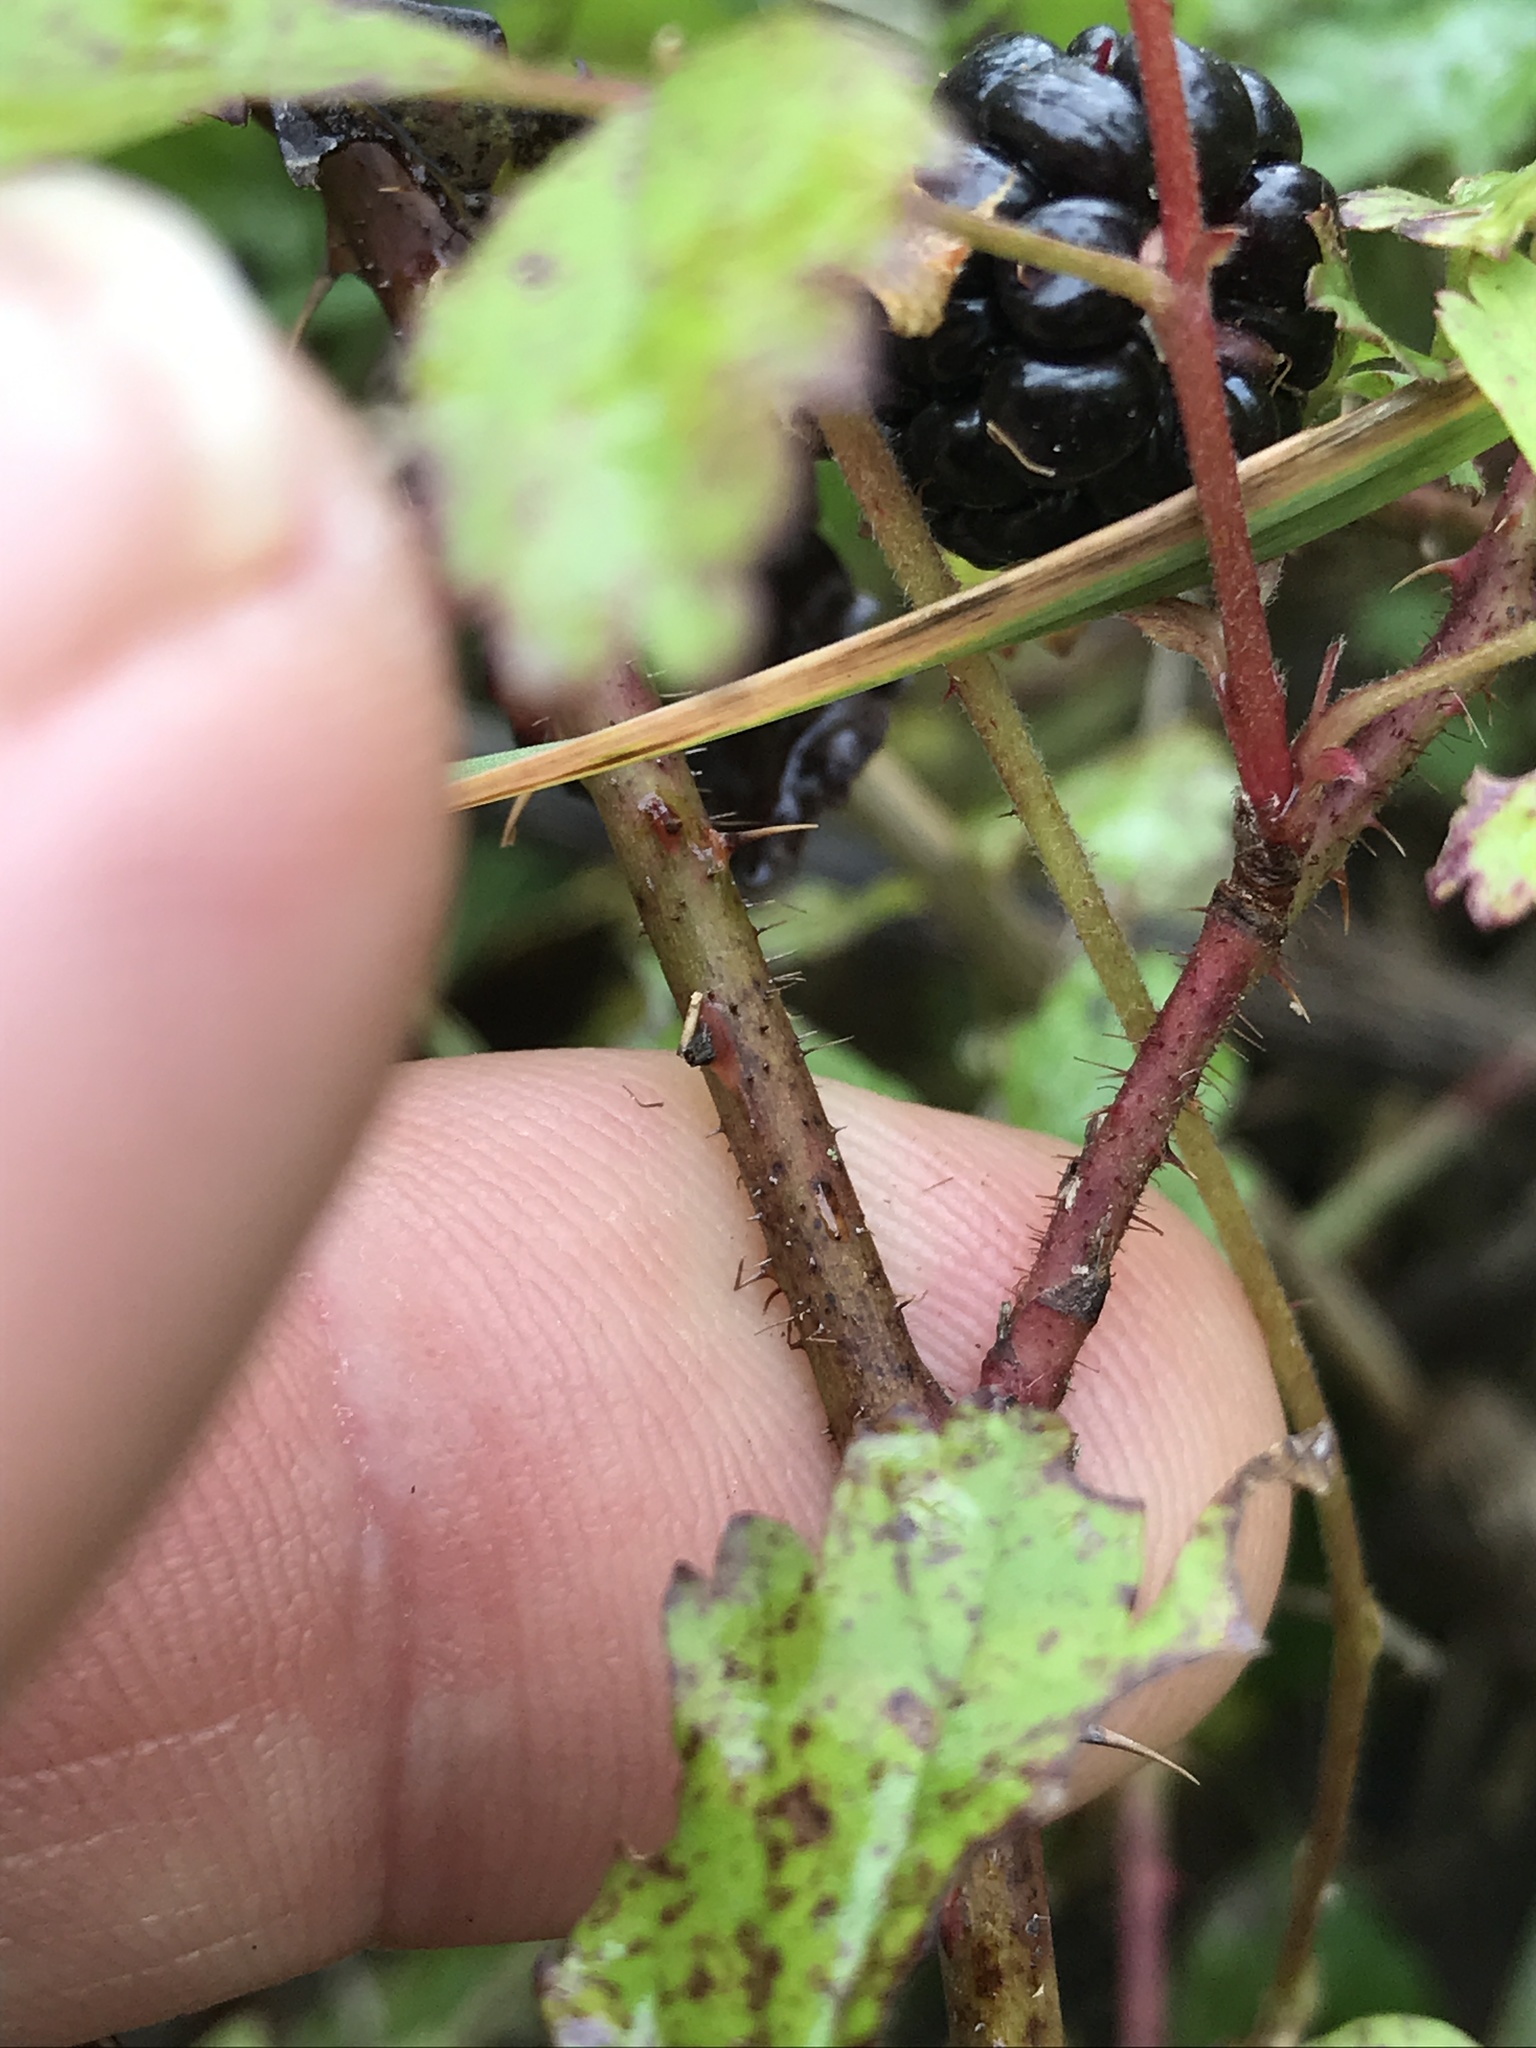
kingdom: Plantae
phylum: Tracheophyta
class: Magnoliopsida
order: Rosales
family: Rosaceae
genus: Rubus
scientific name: Rubus trivialis
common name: Southern dewberry
